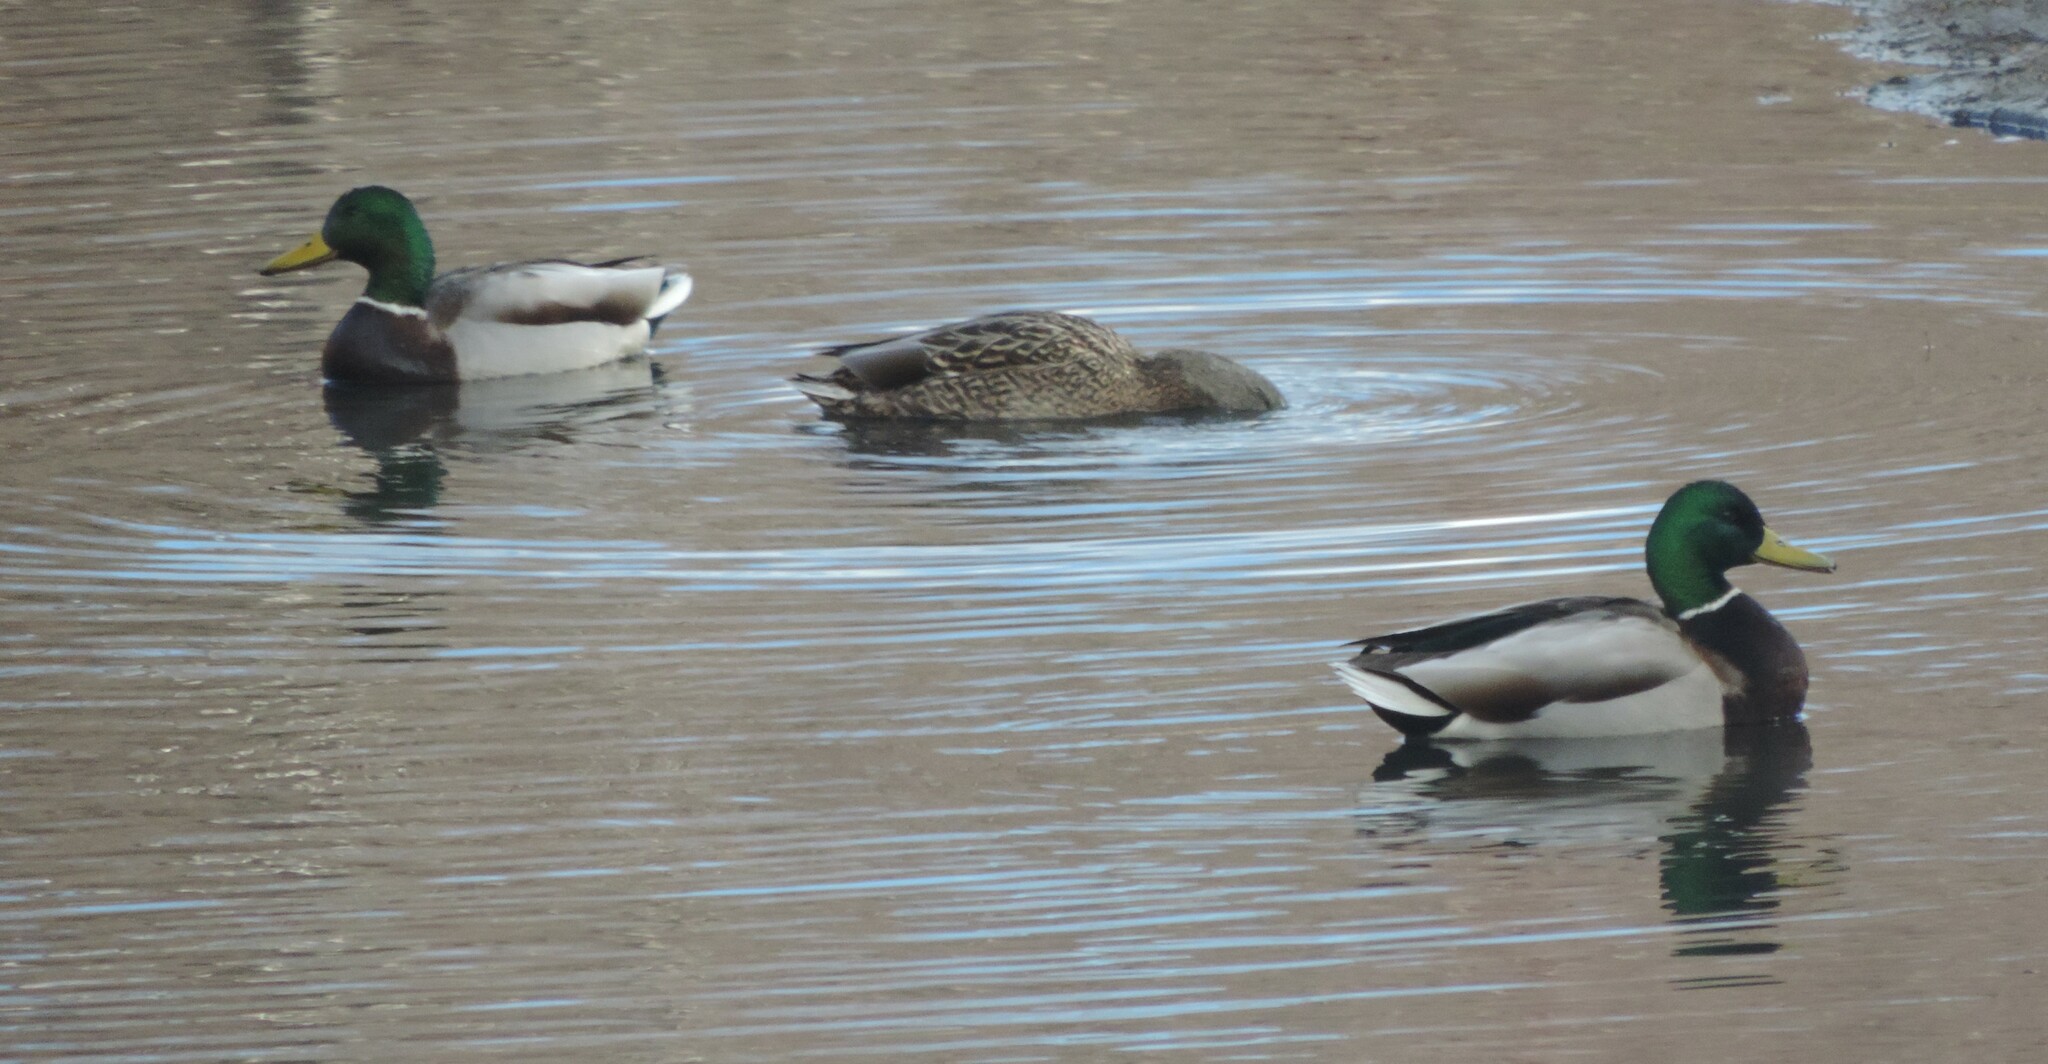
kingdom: Animalia
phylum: Chordata
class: Aves
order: Anseriformes
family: Anatidae
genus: Anas
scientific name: Anas platyrhynchos
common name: Mallard
